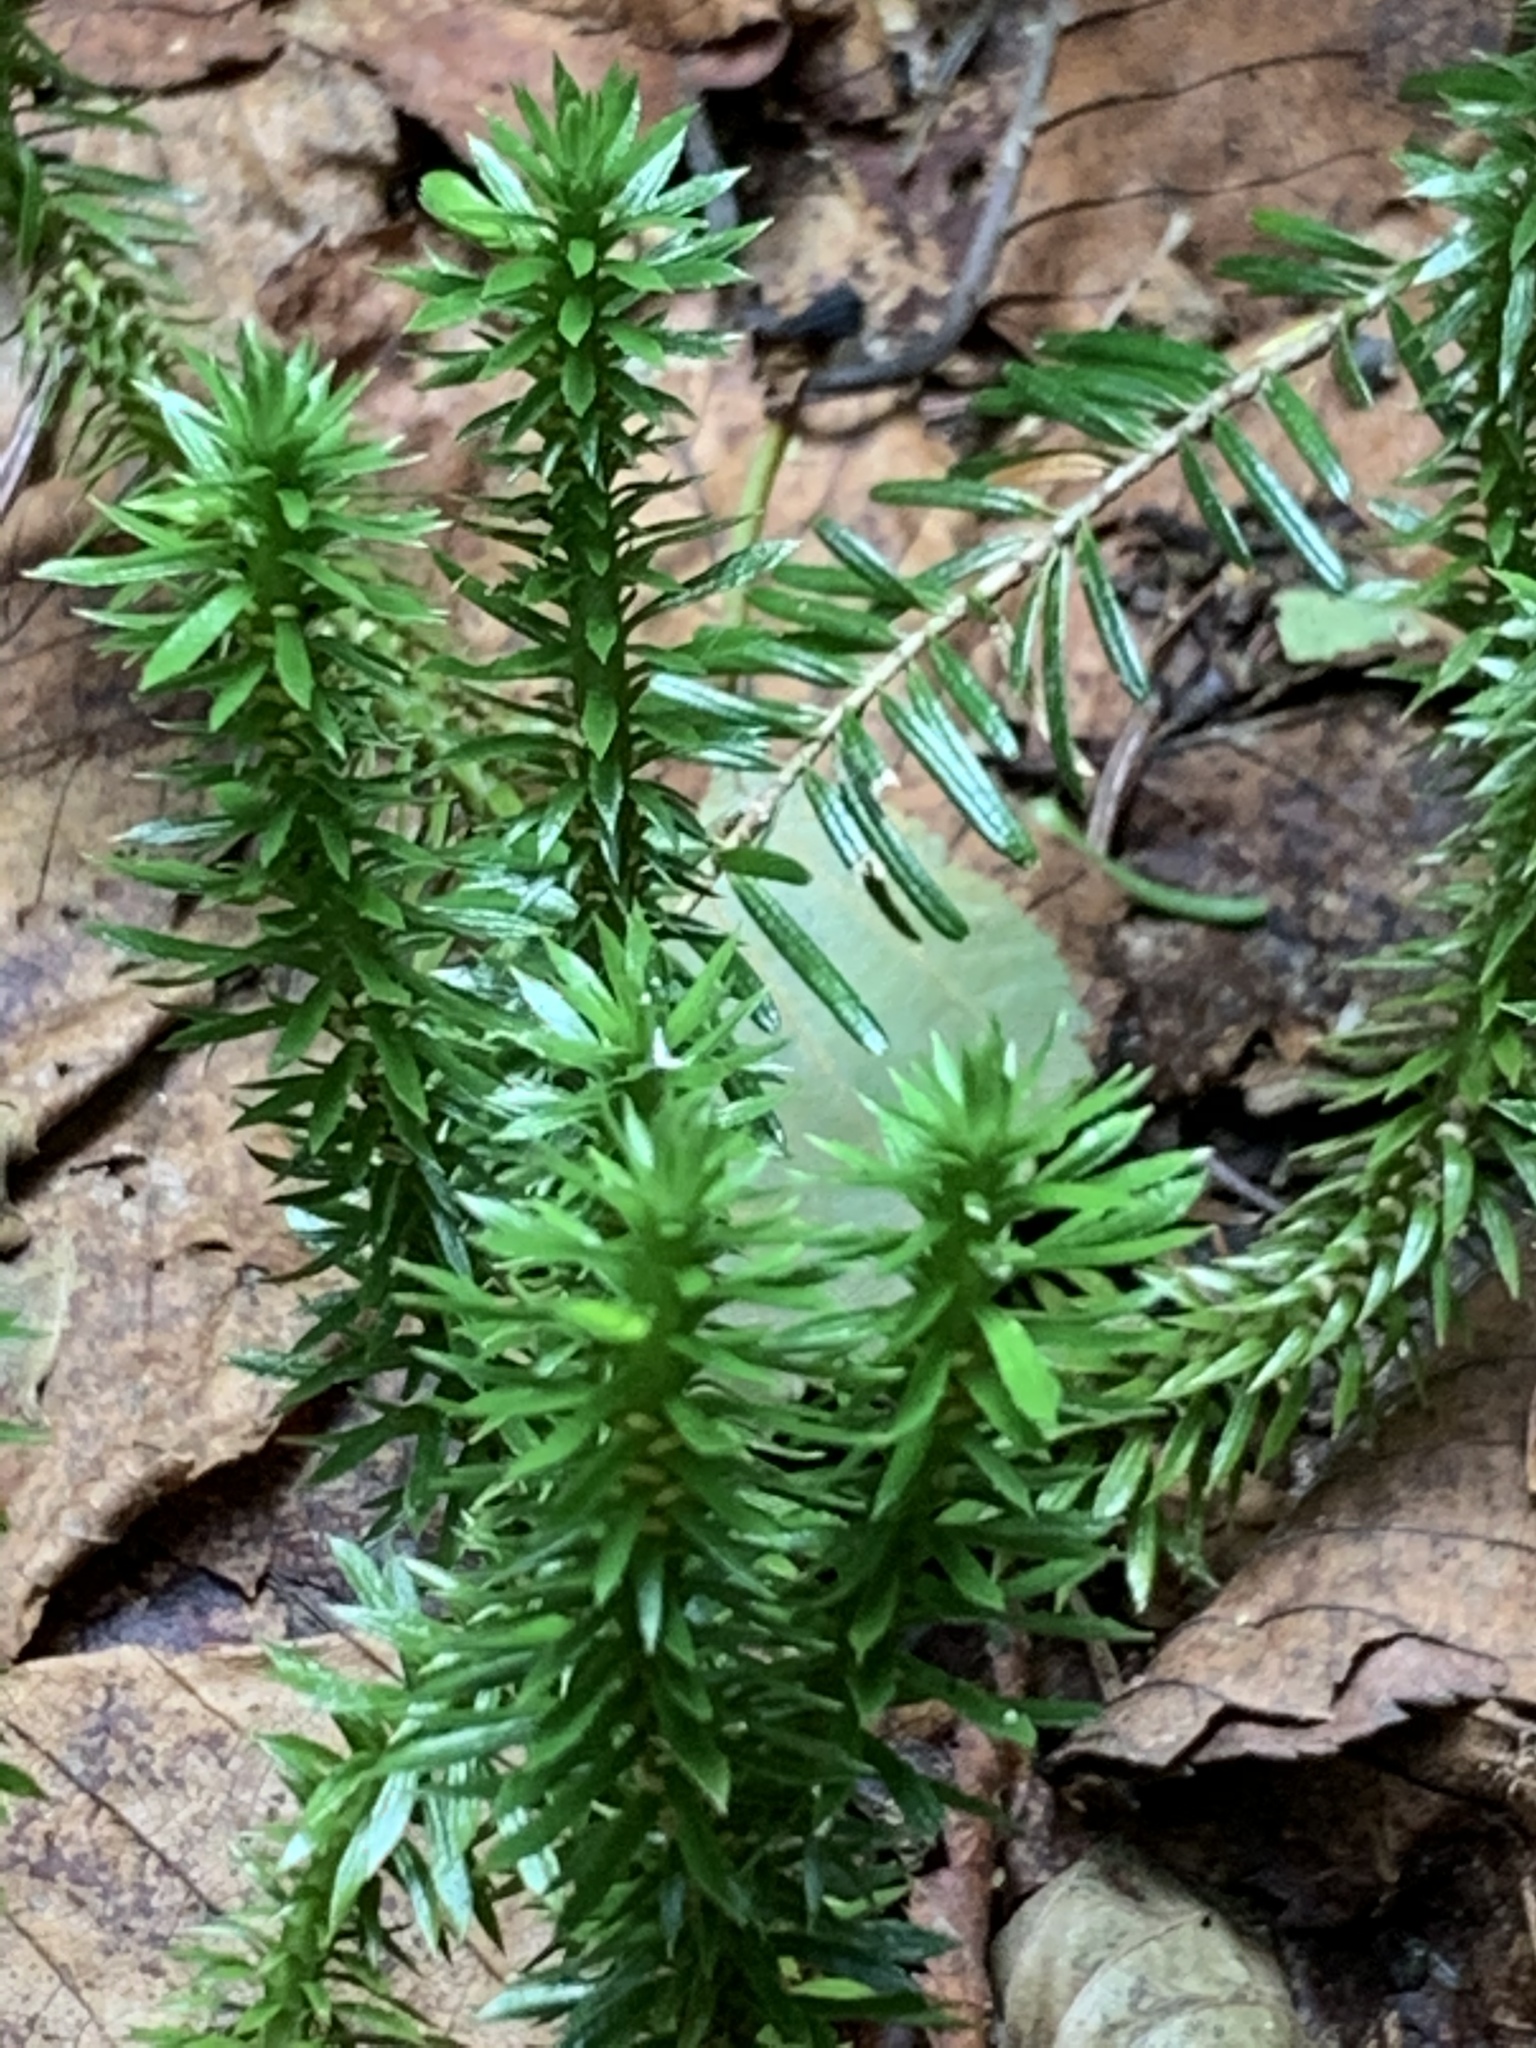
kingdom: Plantae
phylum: Tracheophyta
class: Lycopodiopsida
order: Lycopodiales
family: Lycopodiaceae
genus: Huperzia
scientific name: Huperzia lucidula
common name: Shining clubmoss
